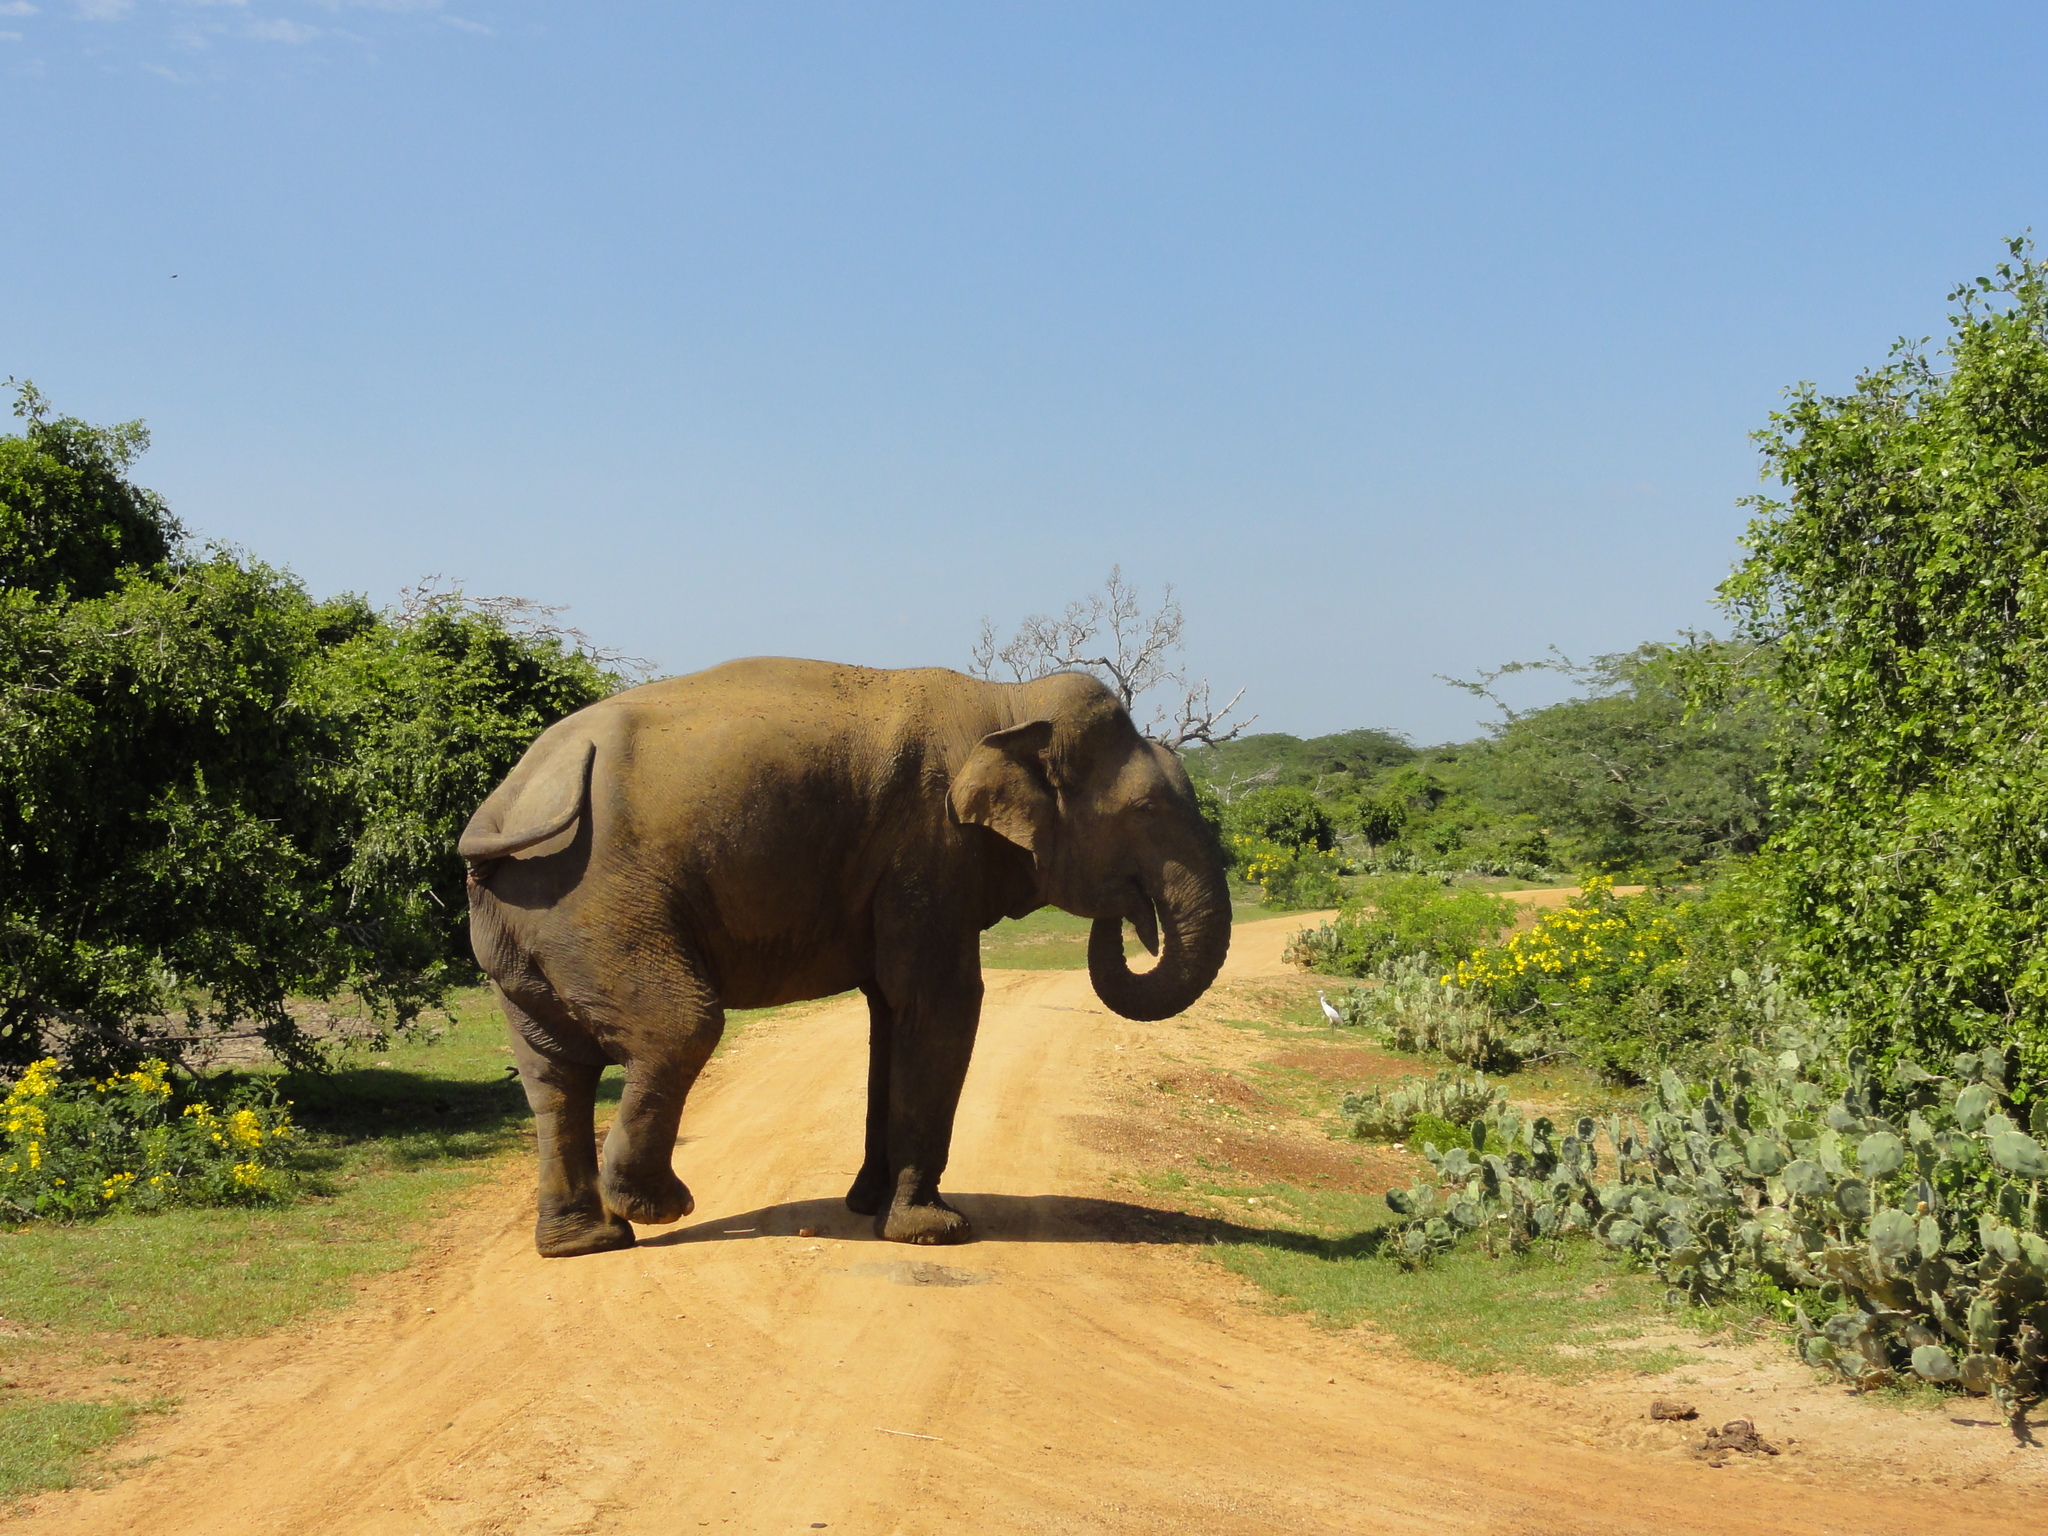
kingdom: Animalia
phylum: Chordata
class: Mammalia
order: Proboscidea
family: Elephantidae
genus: Elephas
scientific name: Elephas maximus
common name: Asian elephant
